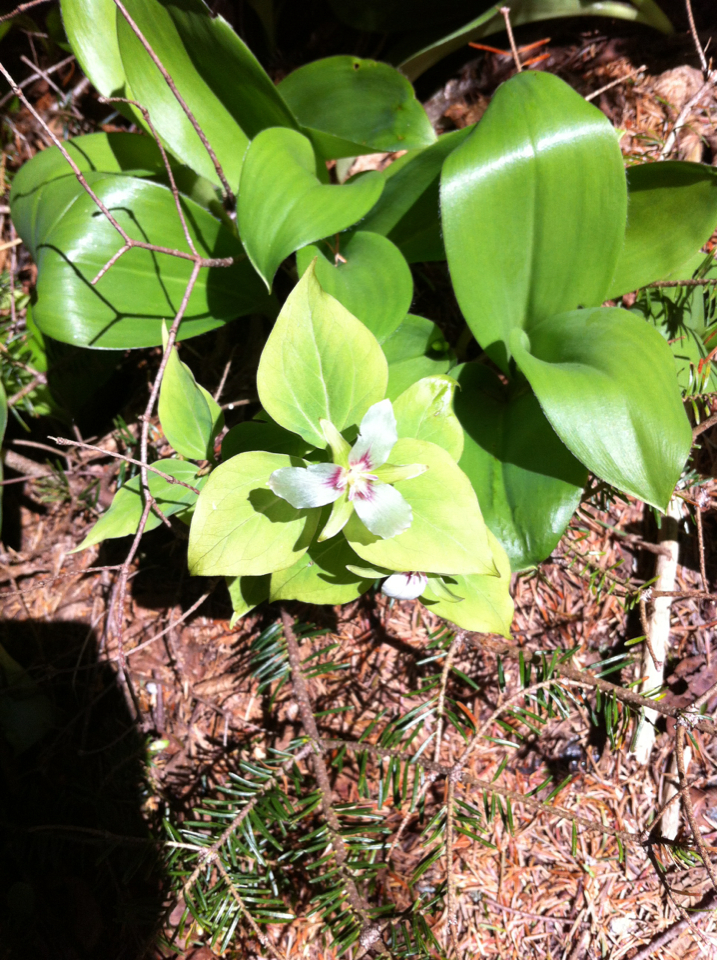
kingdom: Plantae
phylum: Tracheophyta
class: Liliopsida
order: Liliales
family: Melanthiaceae
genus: Trillium
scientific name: Trillium undulatum
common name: Paint trillium
